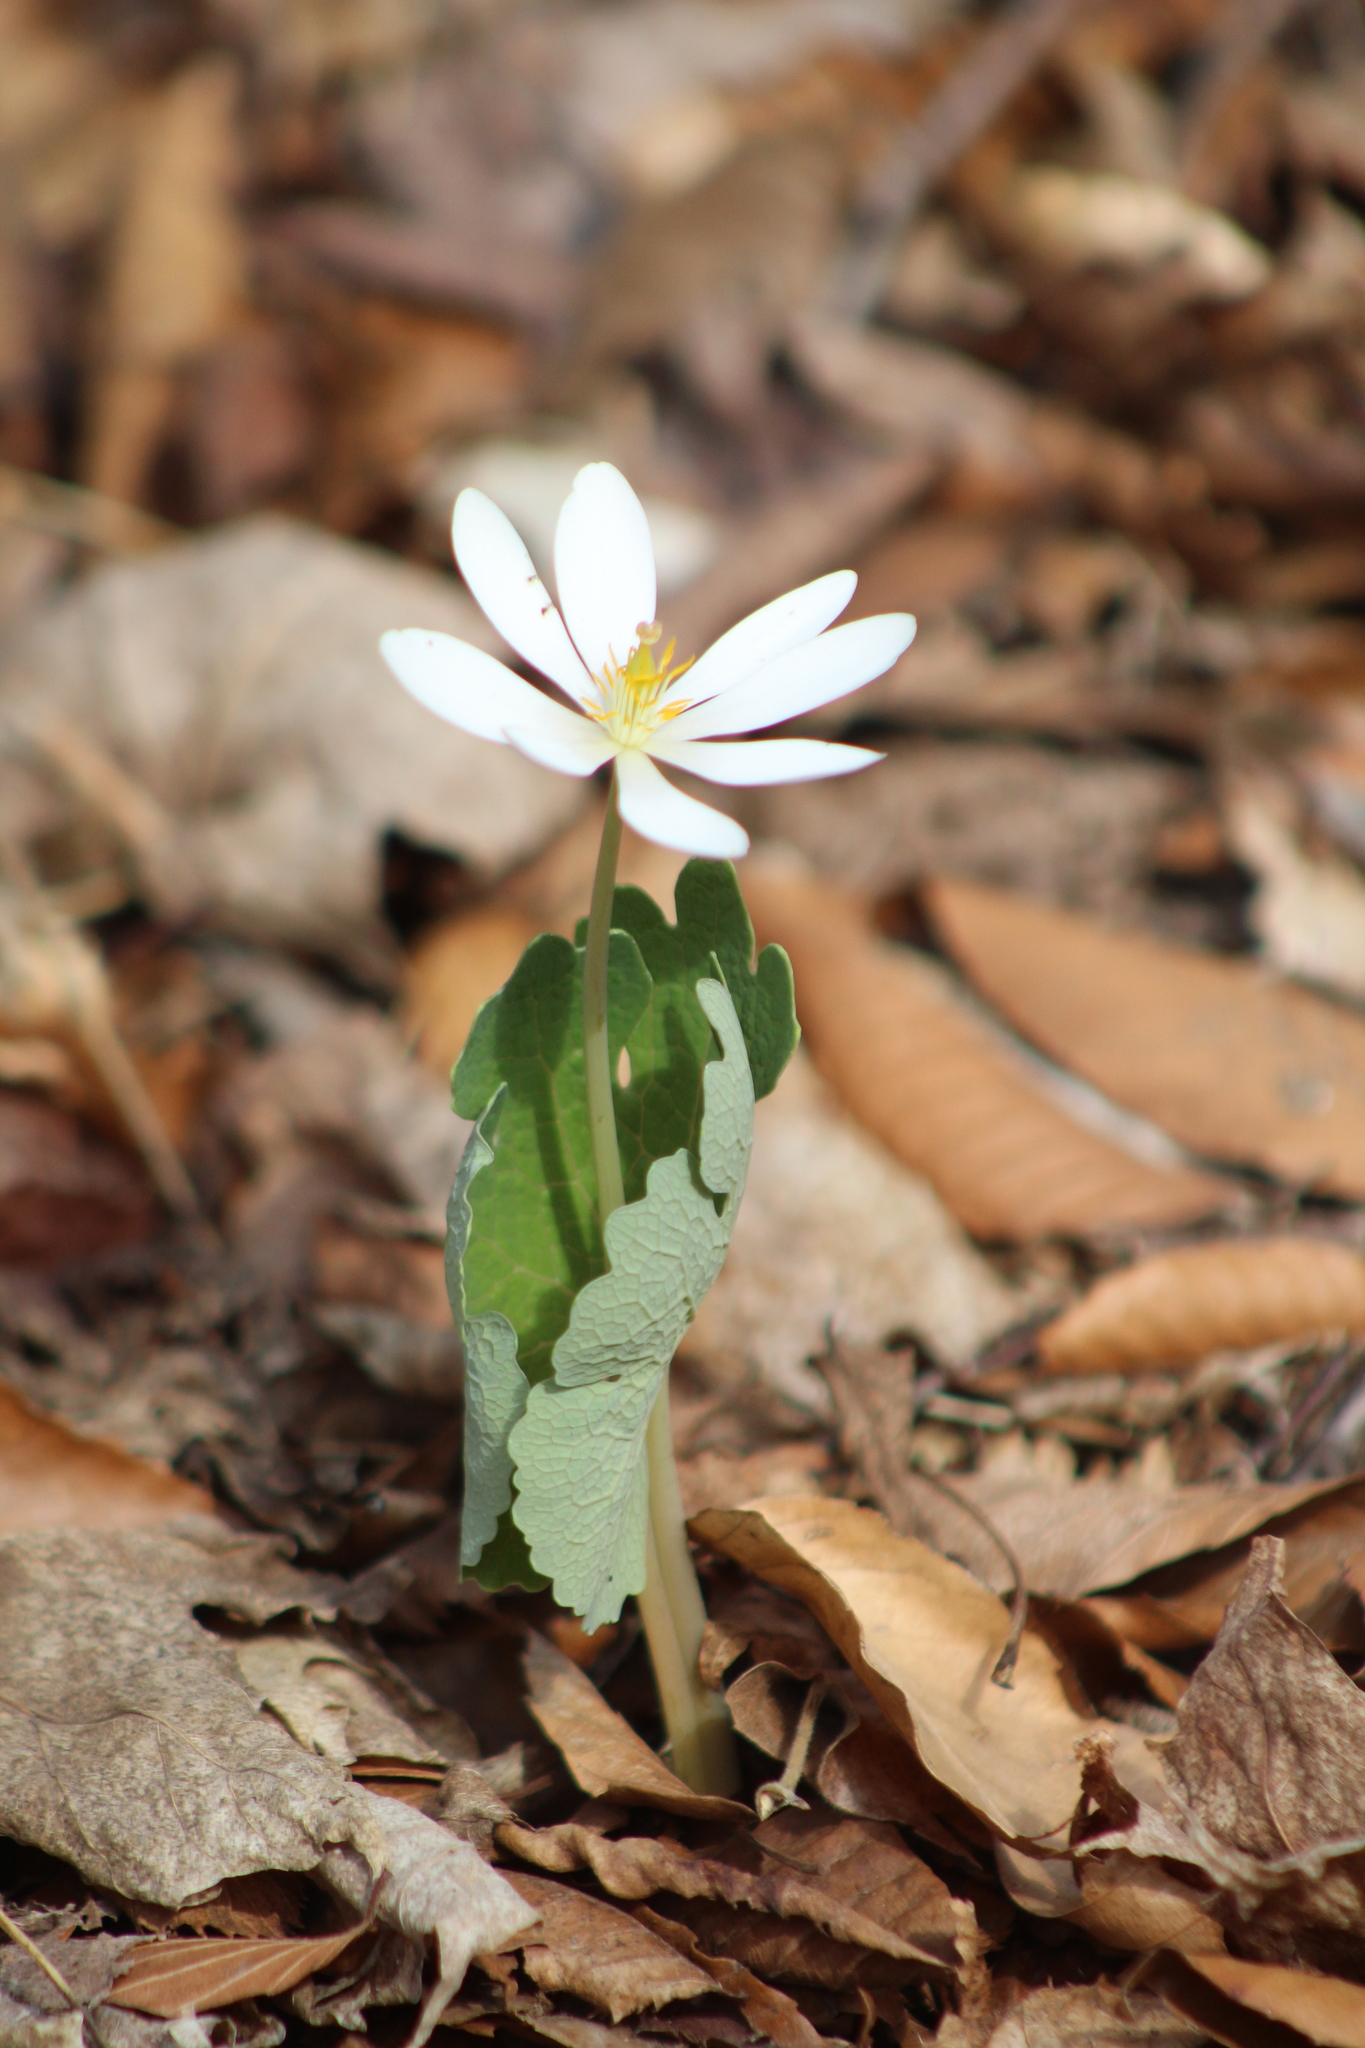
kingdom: Plantae
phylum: Tracheophyta
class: Magnoliopsida
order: Ranunculales
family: Papaveraceae
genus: Sanguinaria
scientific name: Sanguinaria canadensis
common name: Bloodroot
